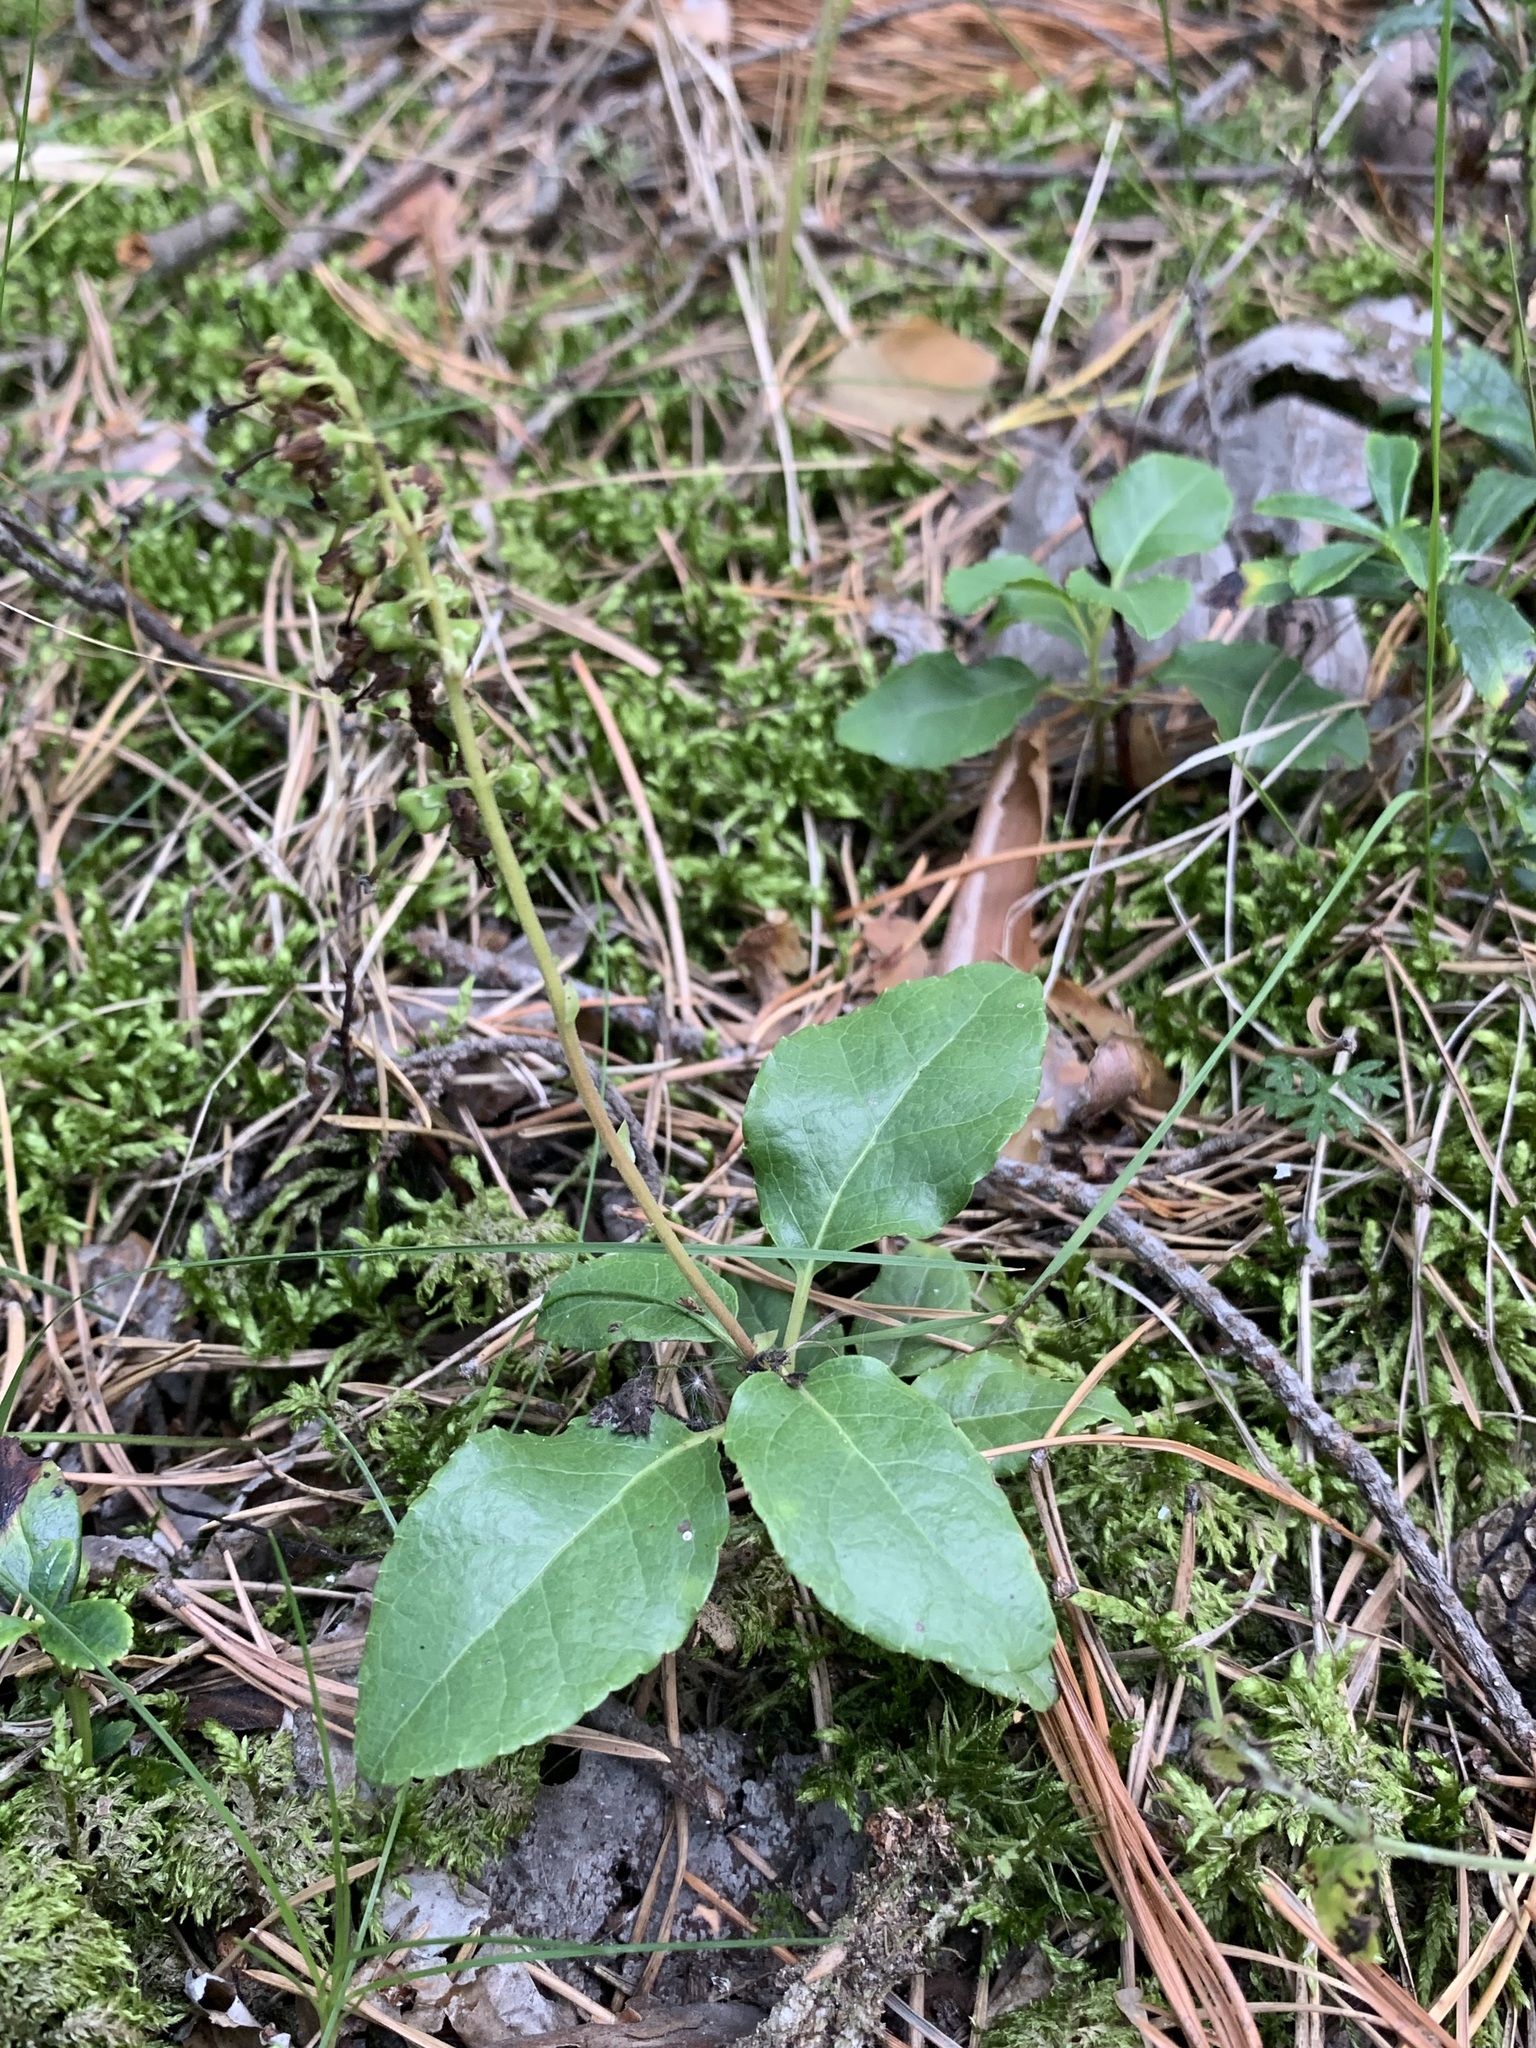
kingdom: Plantae
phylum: Tracheophyta
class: Magnoliopsida
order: Ericales
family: Ericaceae
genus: Orthilia
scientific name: Orthilia secunda
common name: One-sided orthilia
